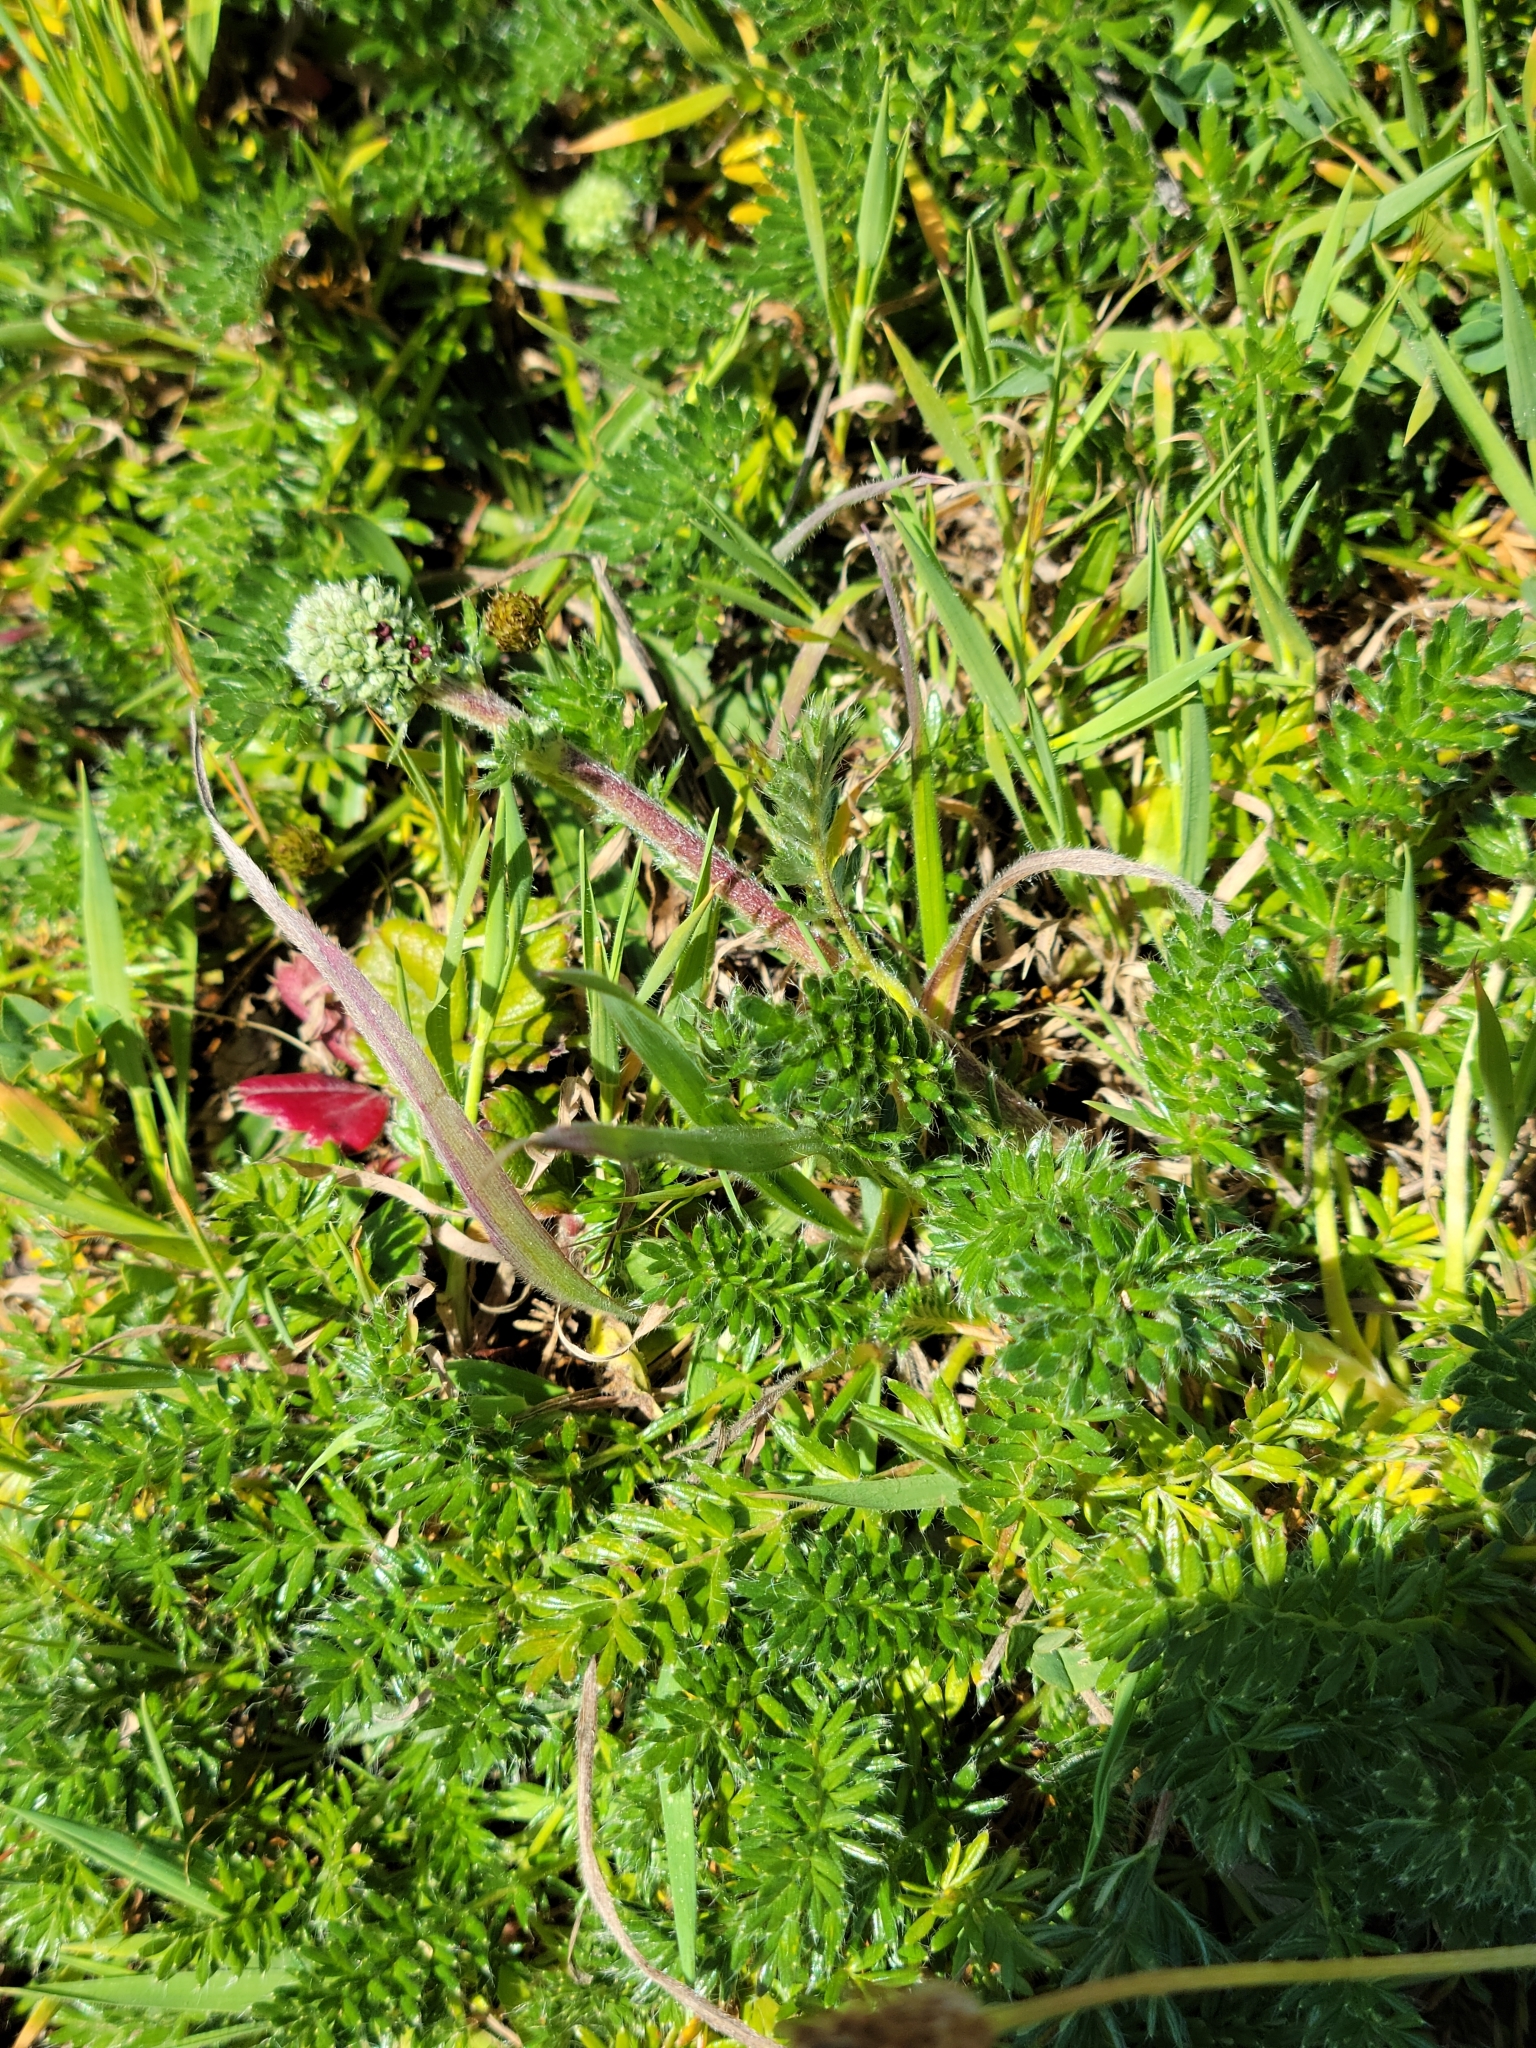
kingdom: Plantae
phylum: Tracheophyta
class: Magnoliopsida
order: Rosales
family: Rosaceae
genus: Acaena
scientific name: Acaena pinnatifida
